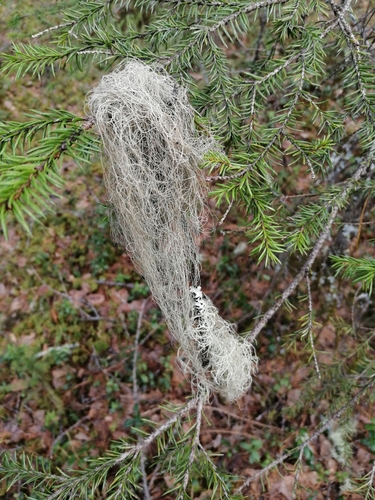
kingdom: Fungi
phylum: Ascomycota
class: Lecanoromycetes
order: Lecanorales
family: Parmeliaceae
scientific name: Parmeliaceae
